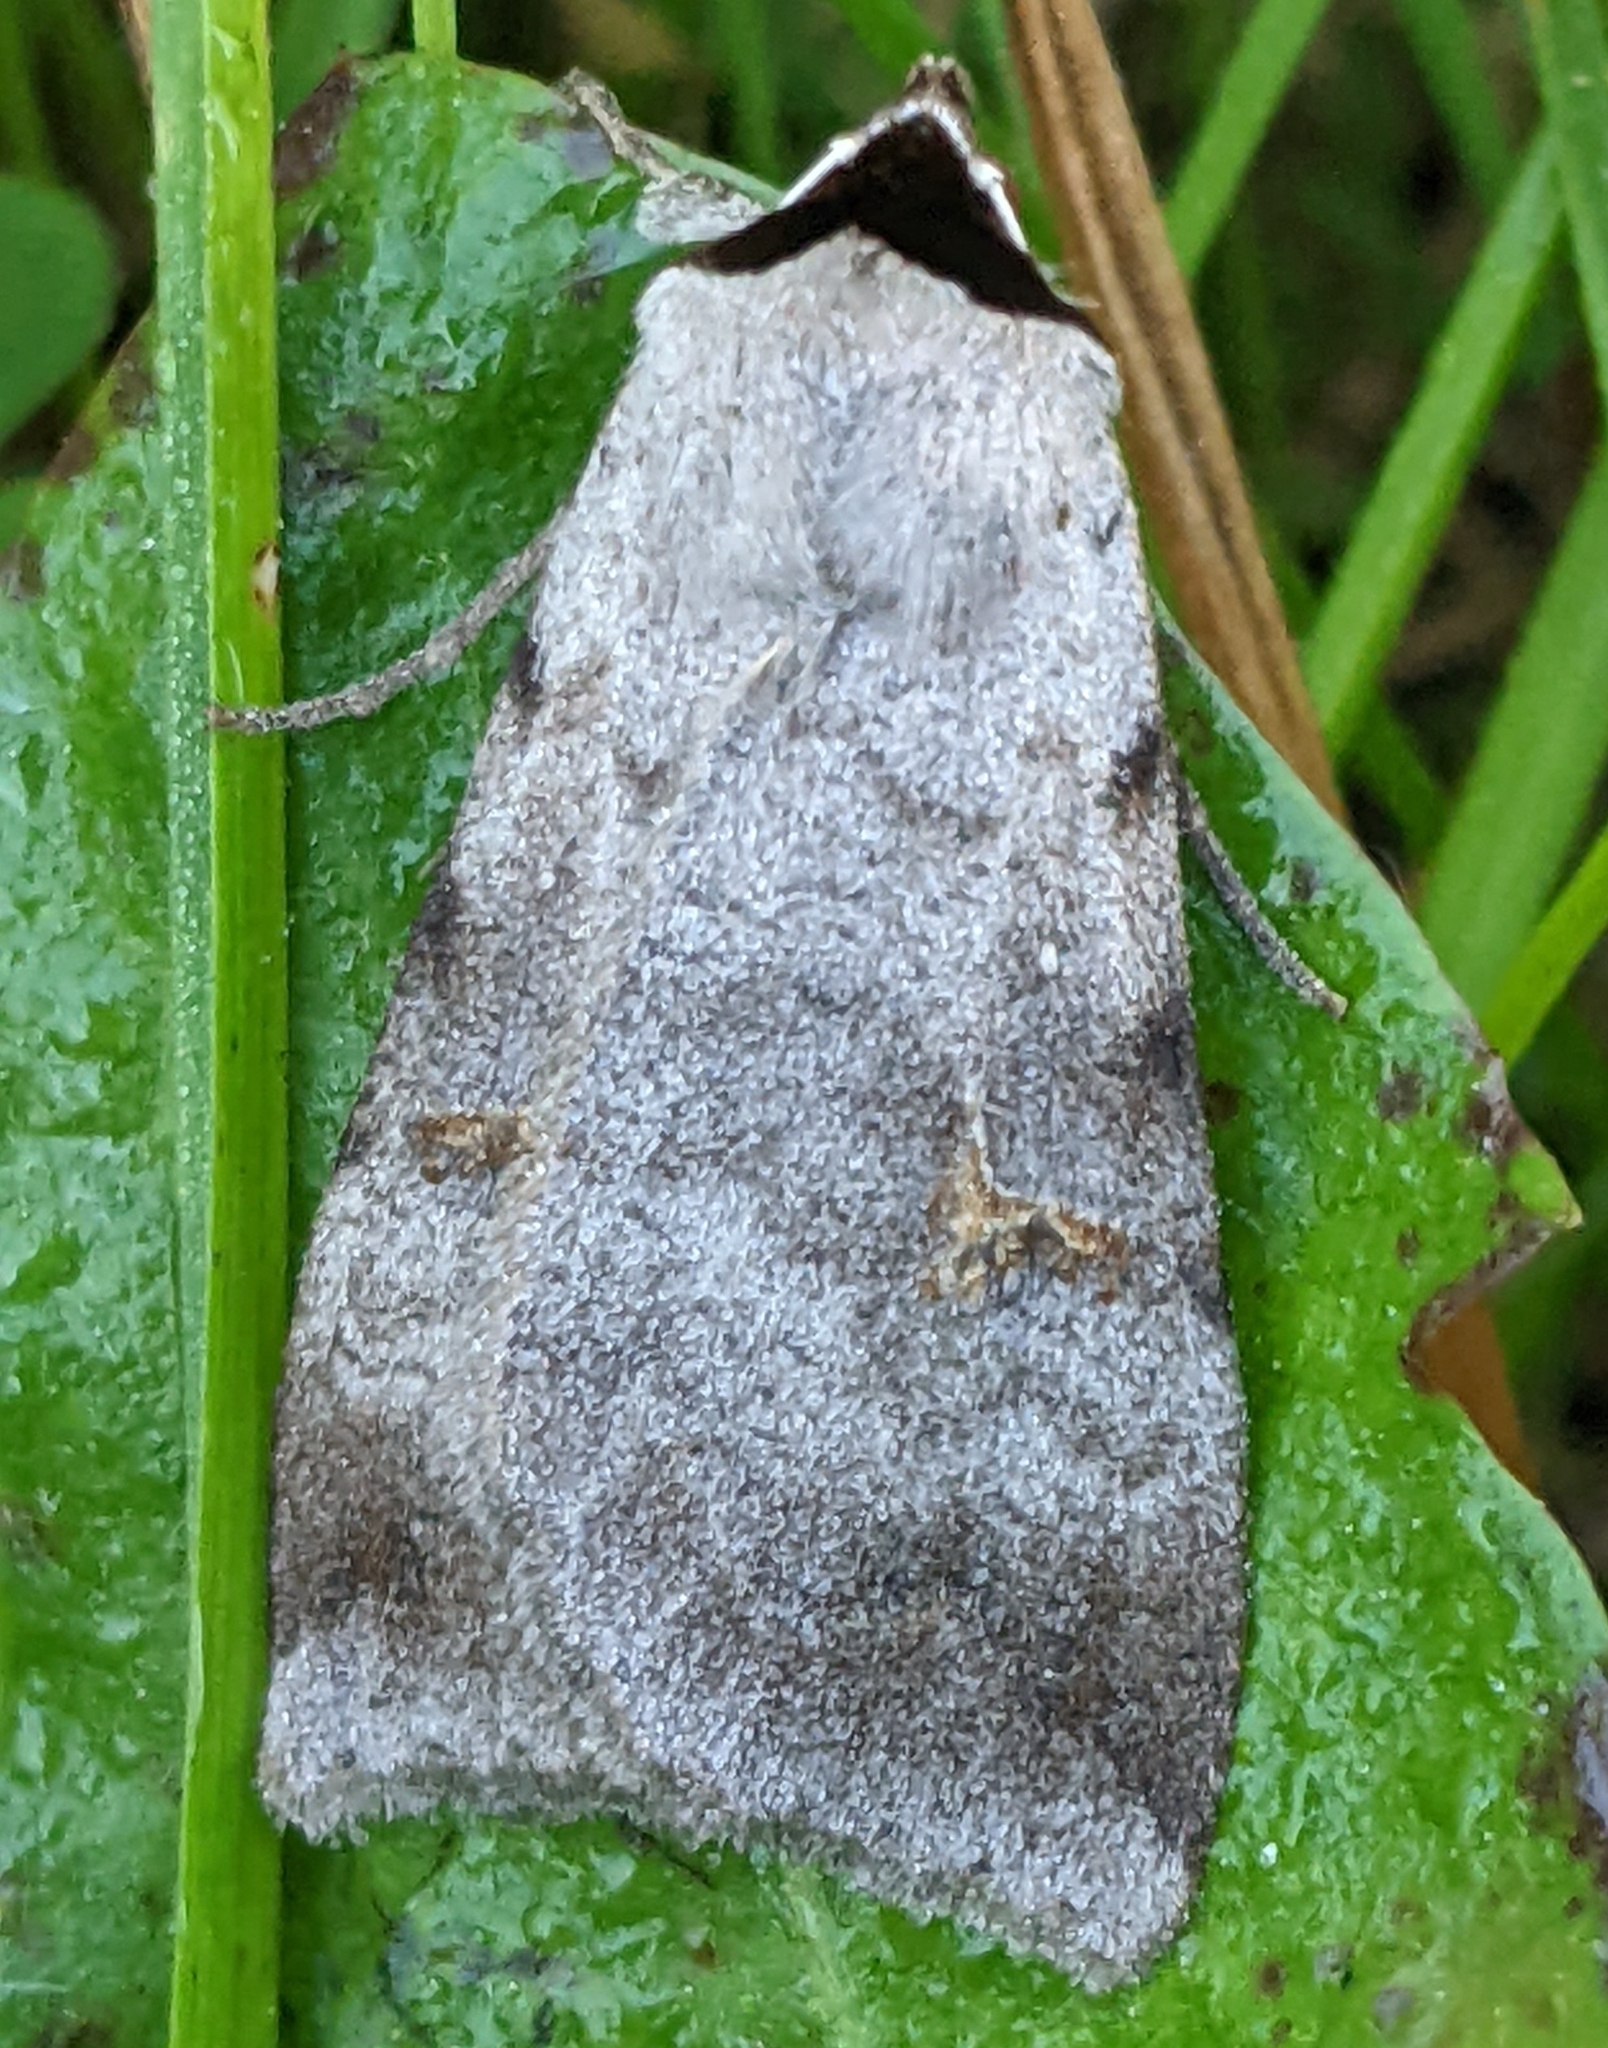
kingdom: Animalia
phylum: Arthropoda
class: Insecta
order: Lepidoptera
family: Erebidae
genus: Lygephila
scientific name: Lygephila victoria
